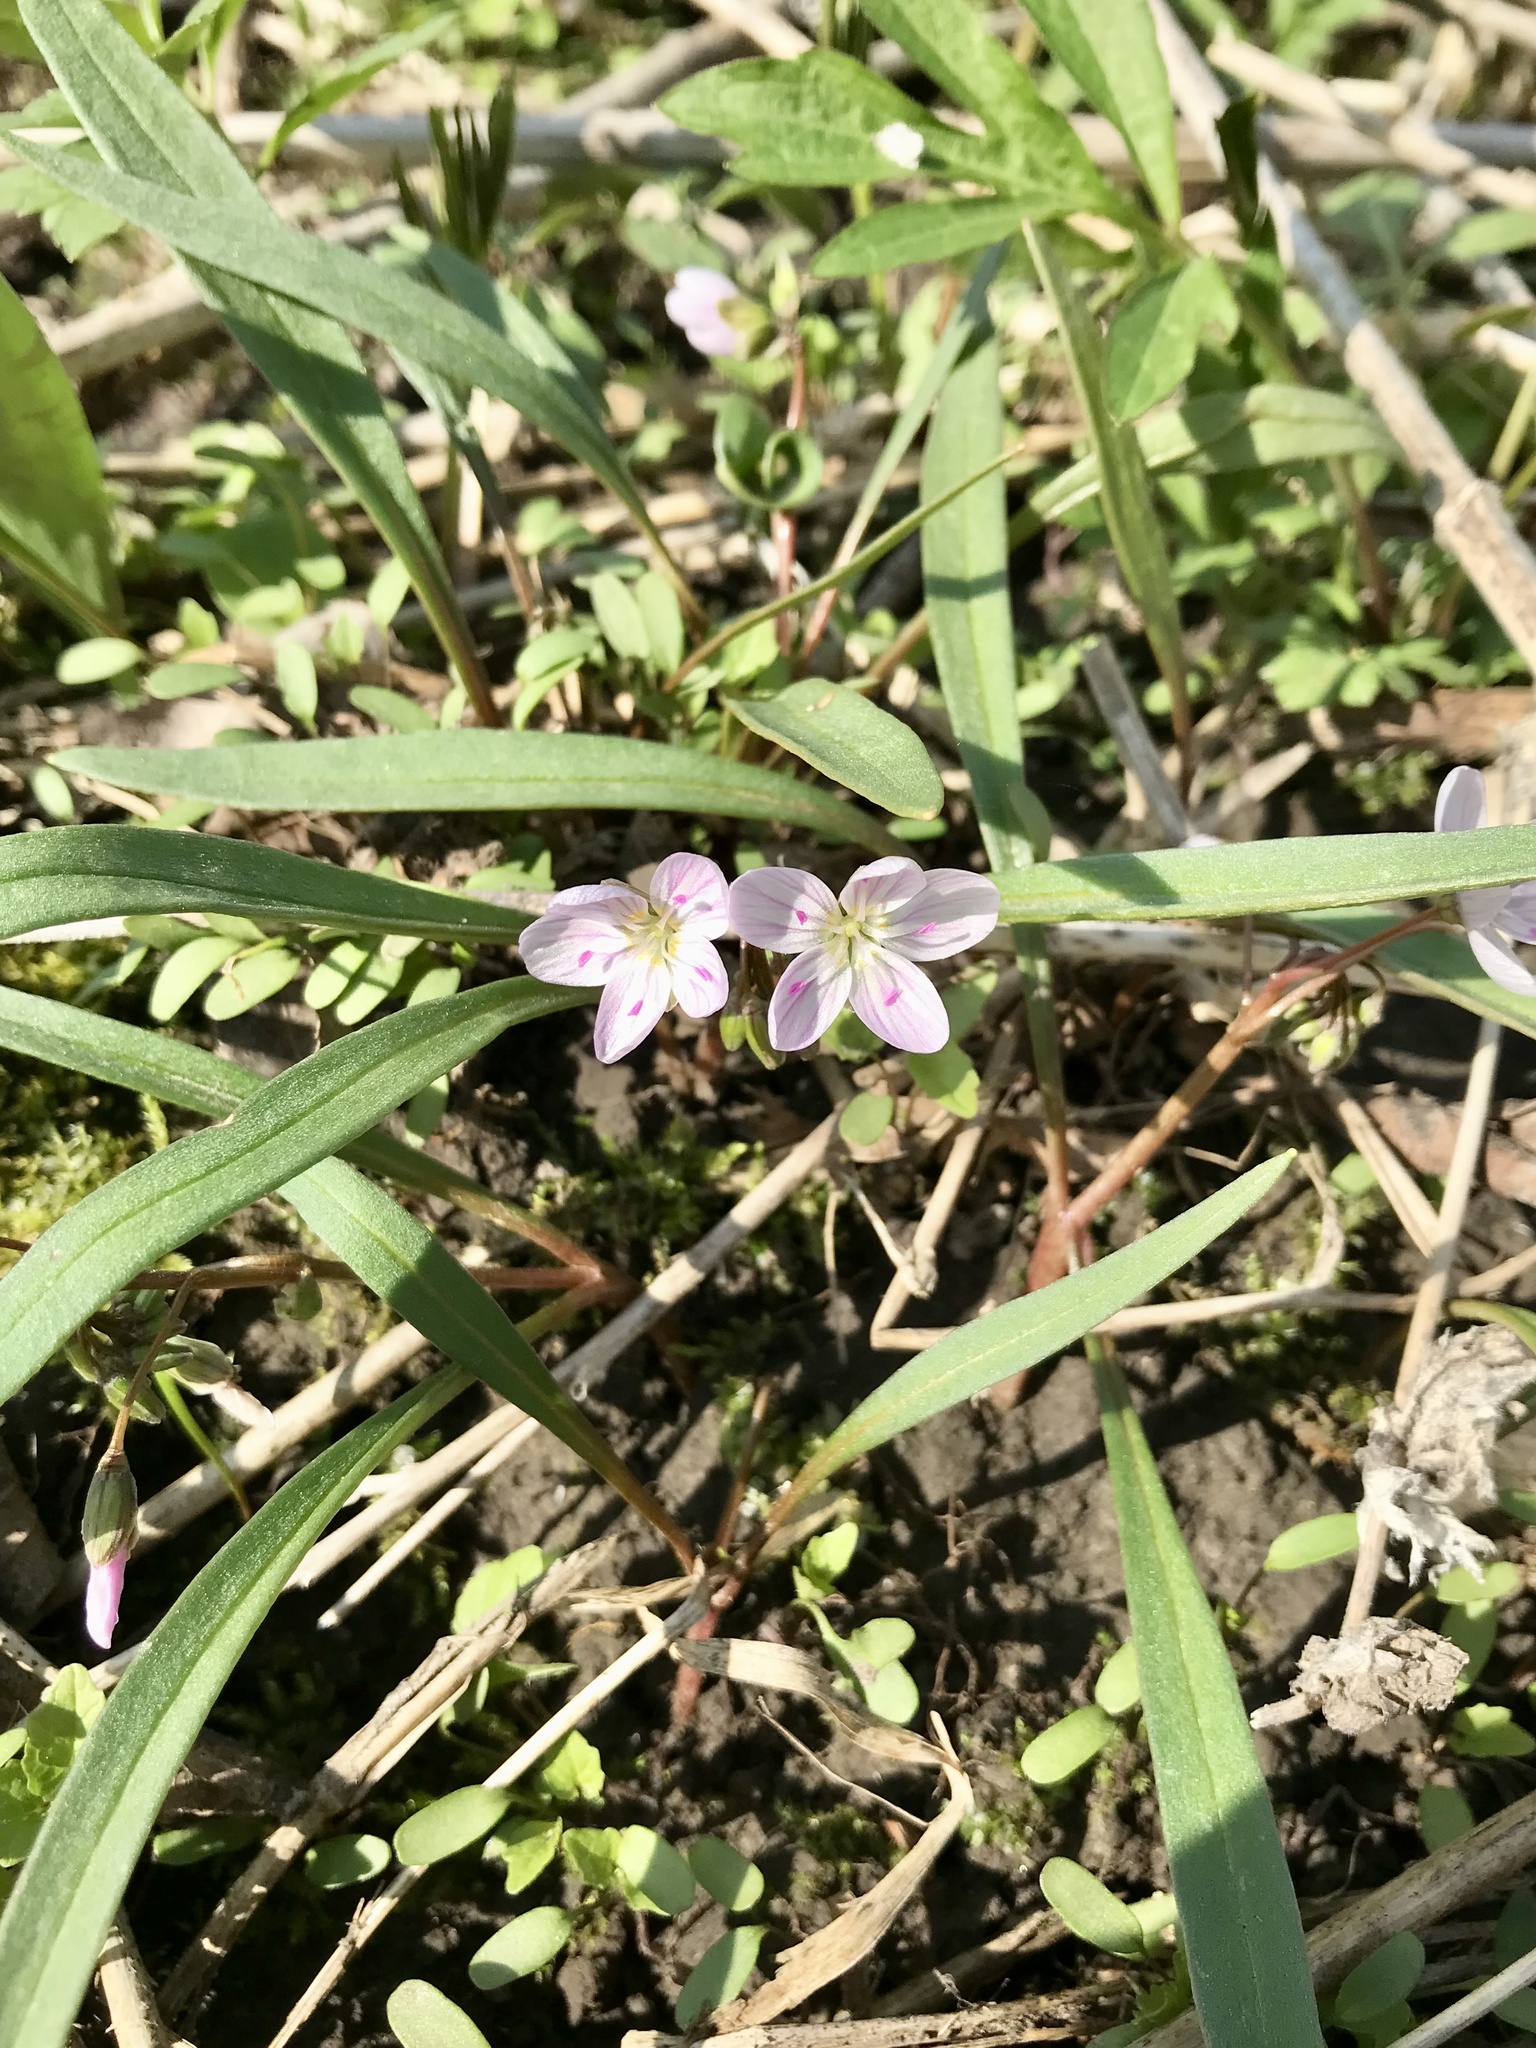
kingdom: Plantae
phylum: Tracheophyta
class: Magnoliopsida
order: Caryophyllales
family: Montiaceae
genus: Claytonia
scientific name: Claytonia virginica
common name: Virginia springbeauty
